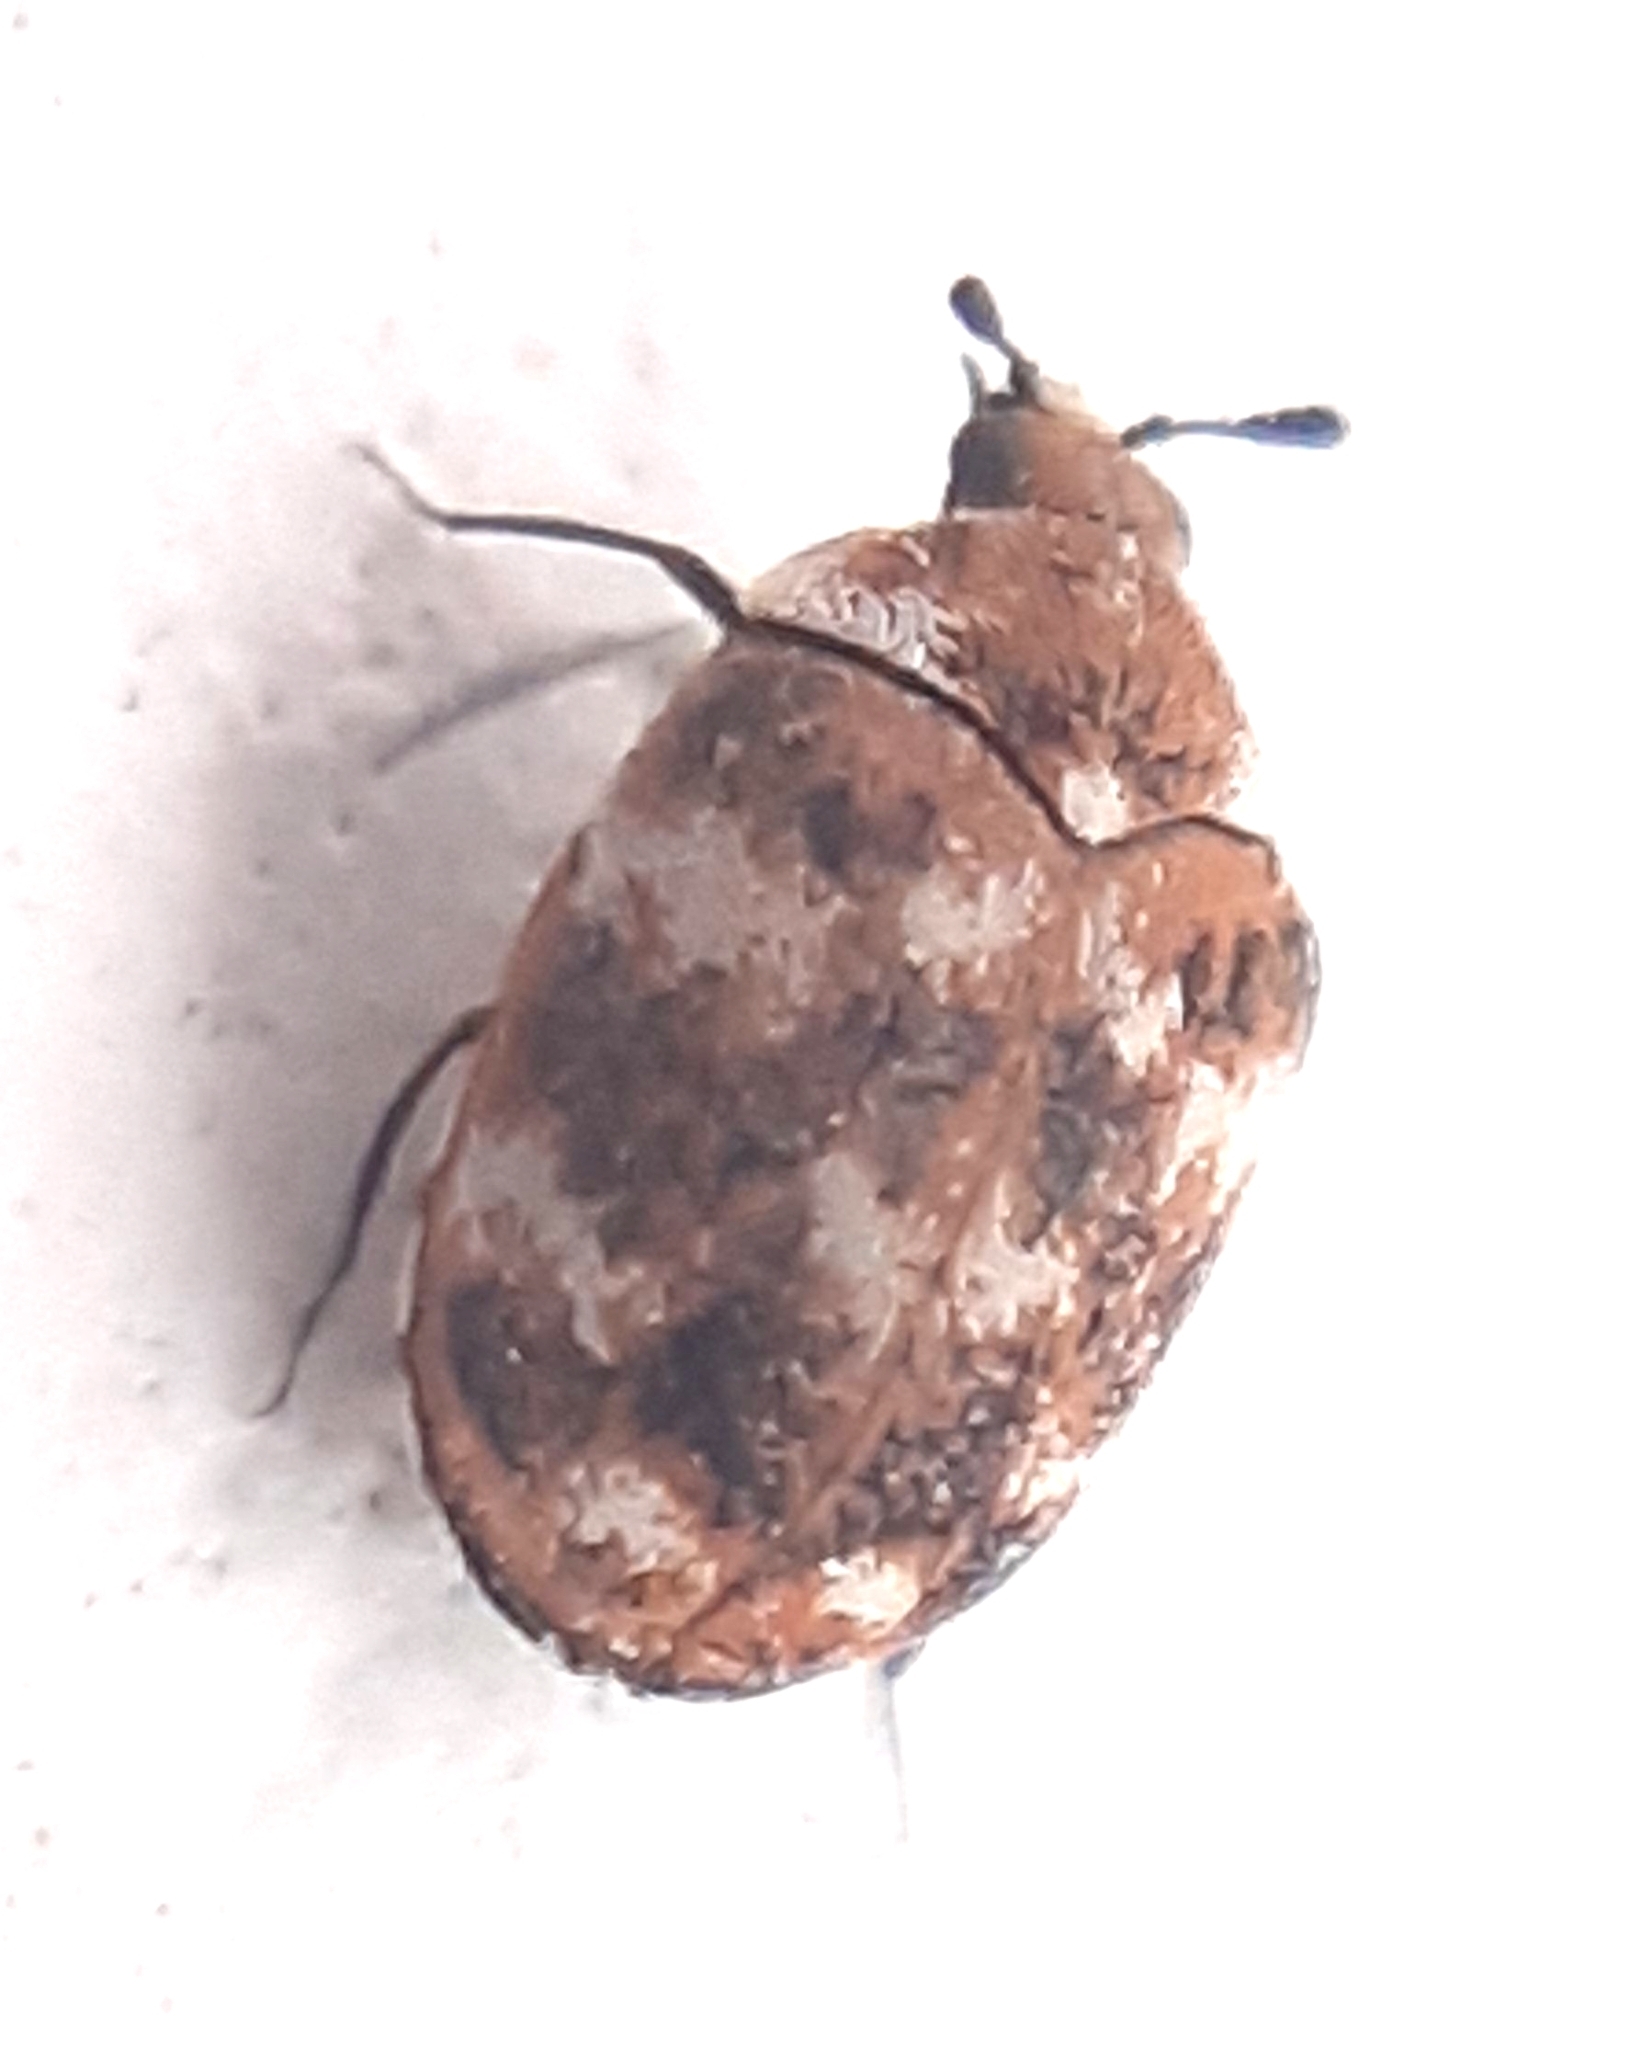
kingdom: Animalia
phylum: Arthropoda
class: Insecta
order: Coleoptera
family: Dermestidae
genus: Anthrenus
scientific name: Anthrenus verbasci
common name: Varied carpet beetle
